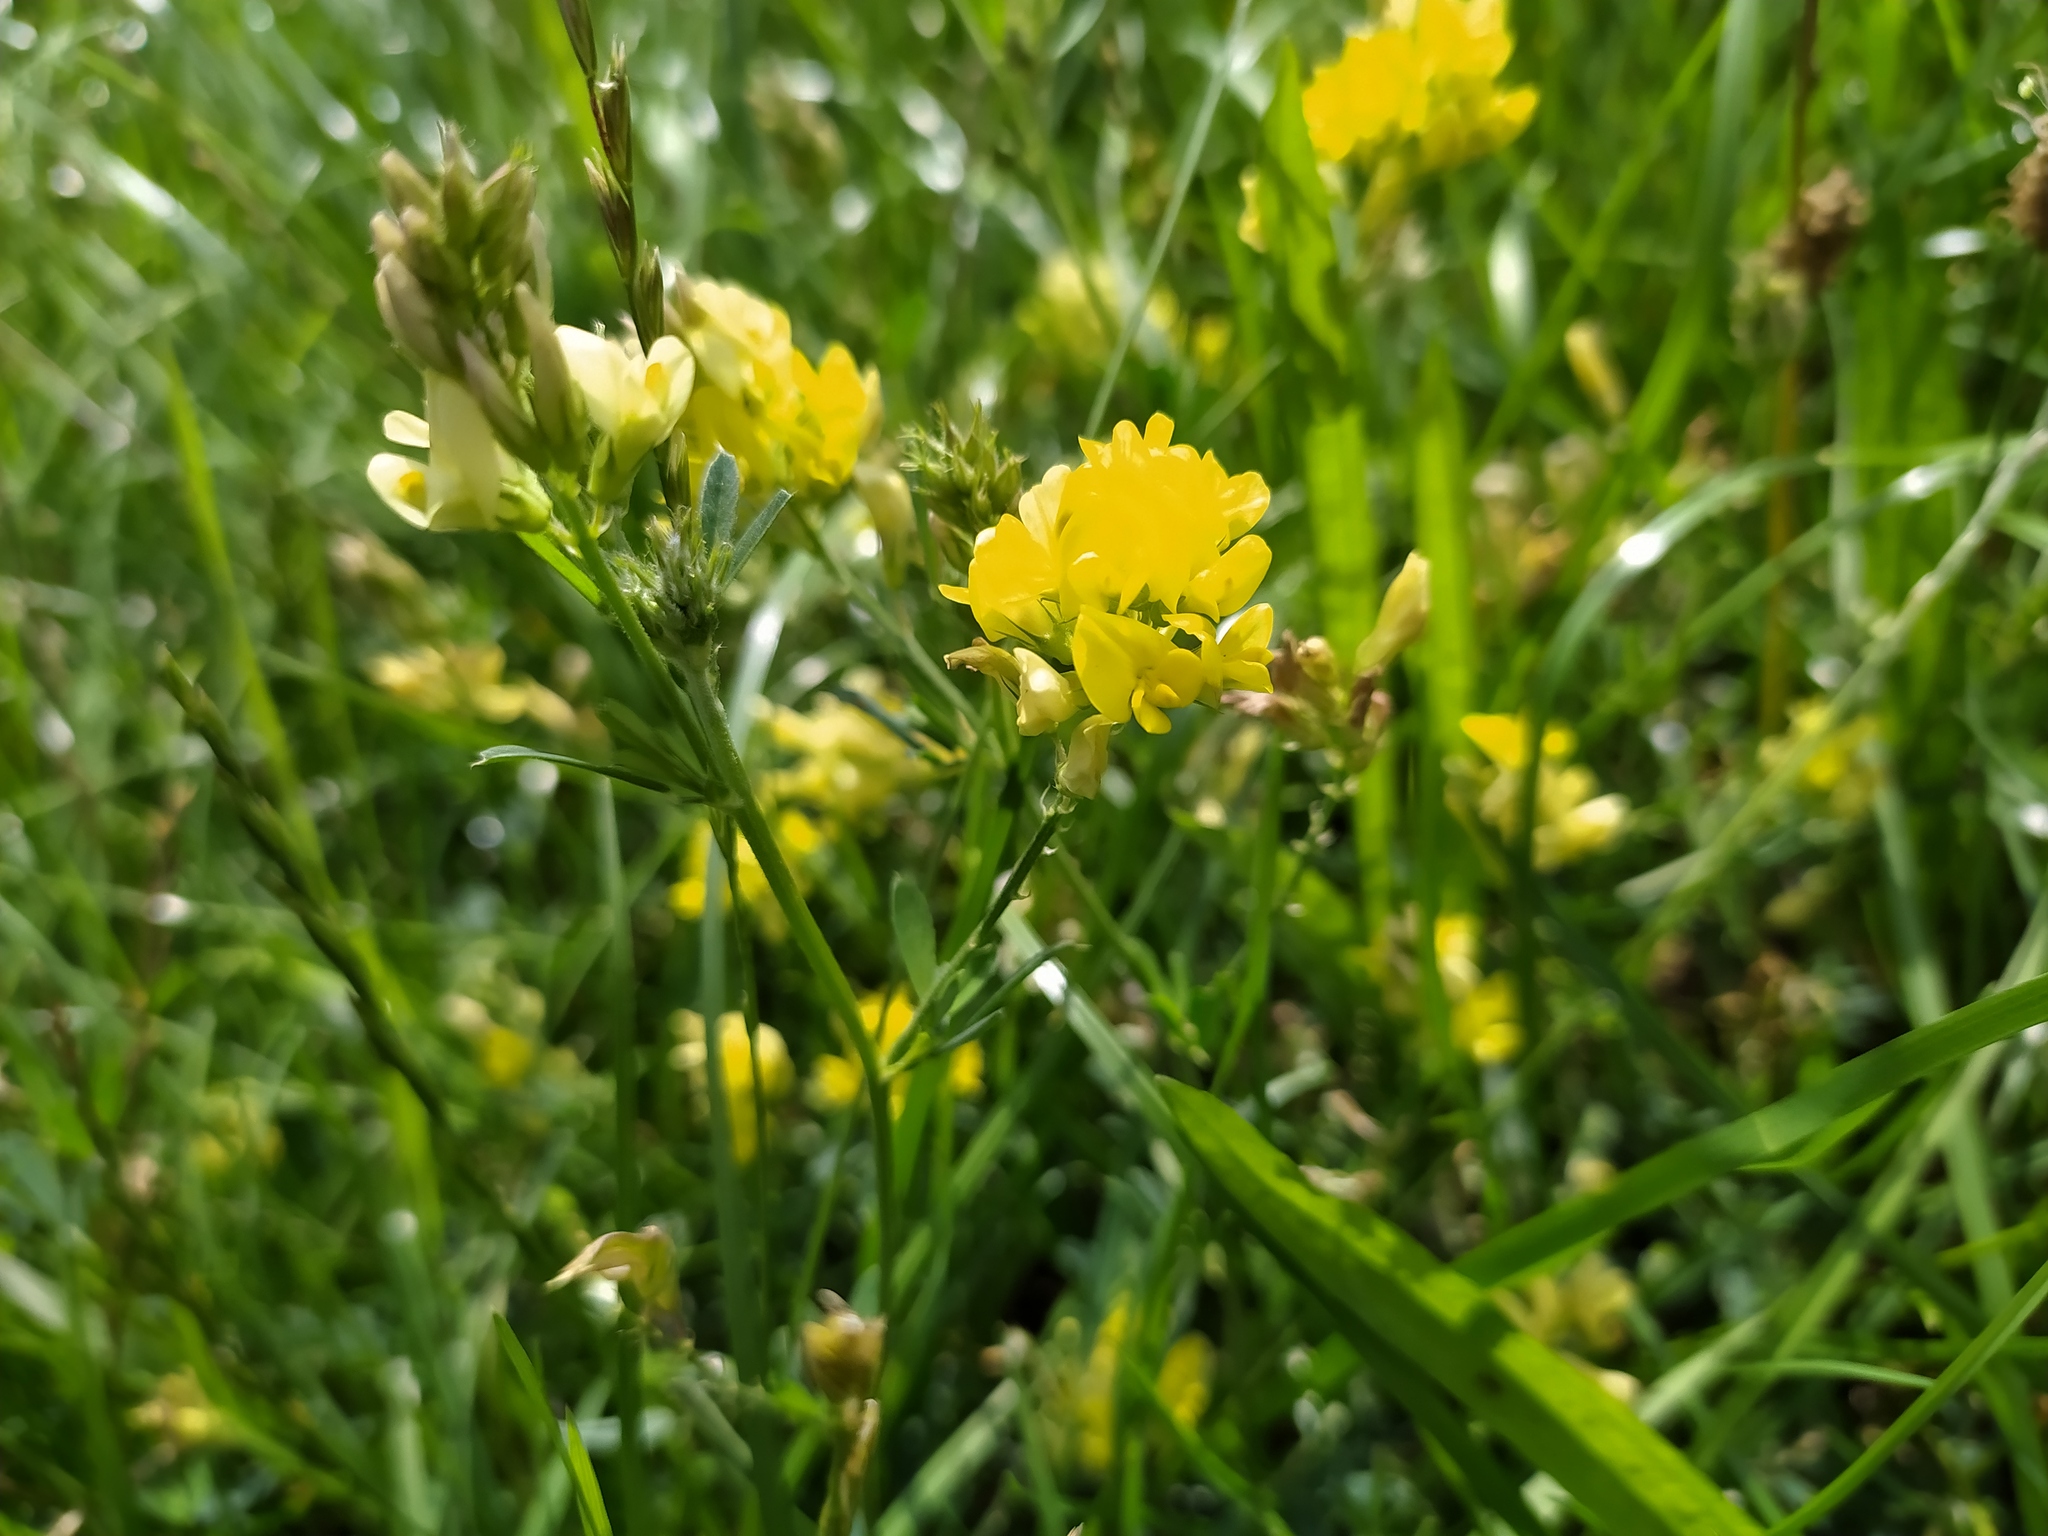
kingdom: Plantae
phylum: Tracheophyta
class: Magnoliopsida
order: Fabales
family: Fabaceae
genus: Medicago
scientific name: Medicago falcata
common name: Sickle medick
